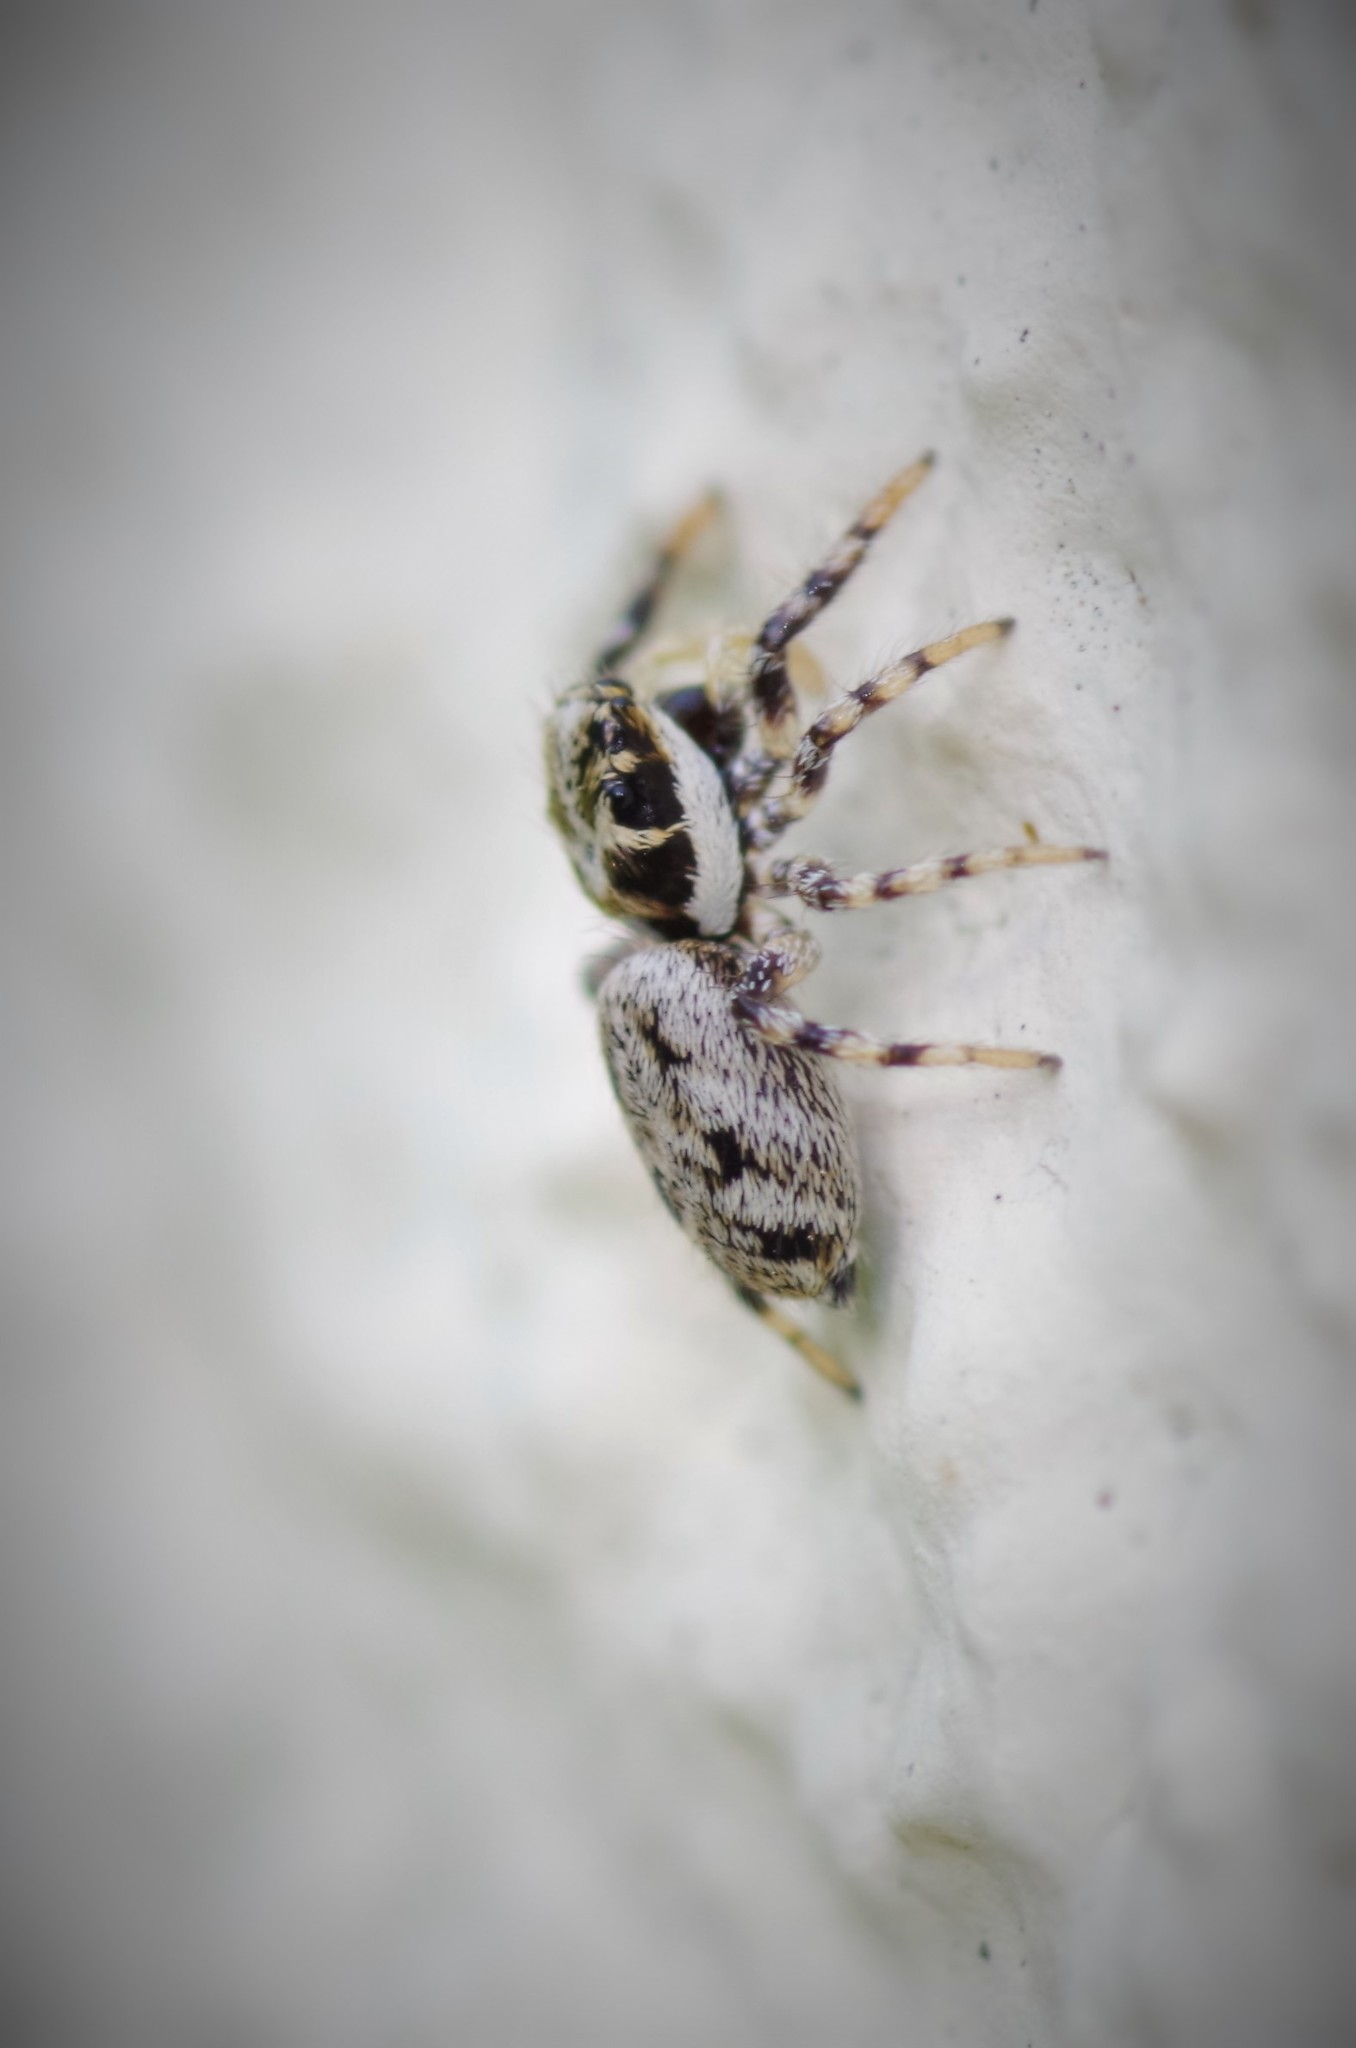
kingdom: Animalia
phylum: Arthropoda
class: Arachnida
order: Araneae
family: Salticidae
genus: Salticus
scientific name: Salticus mutabilis
